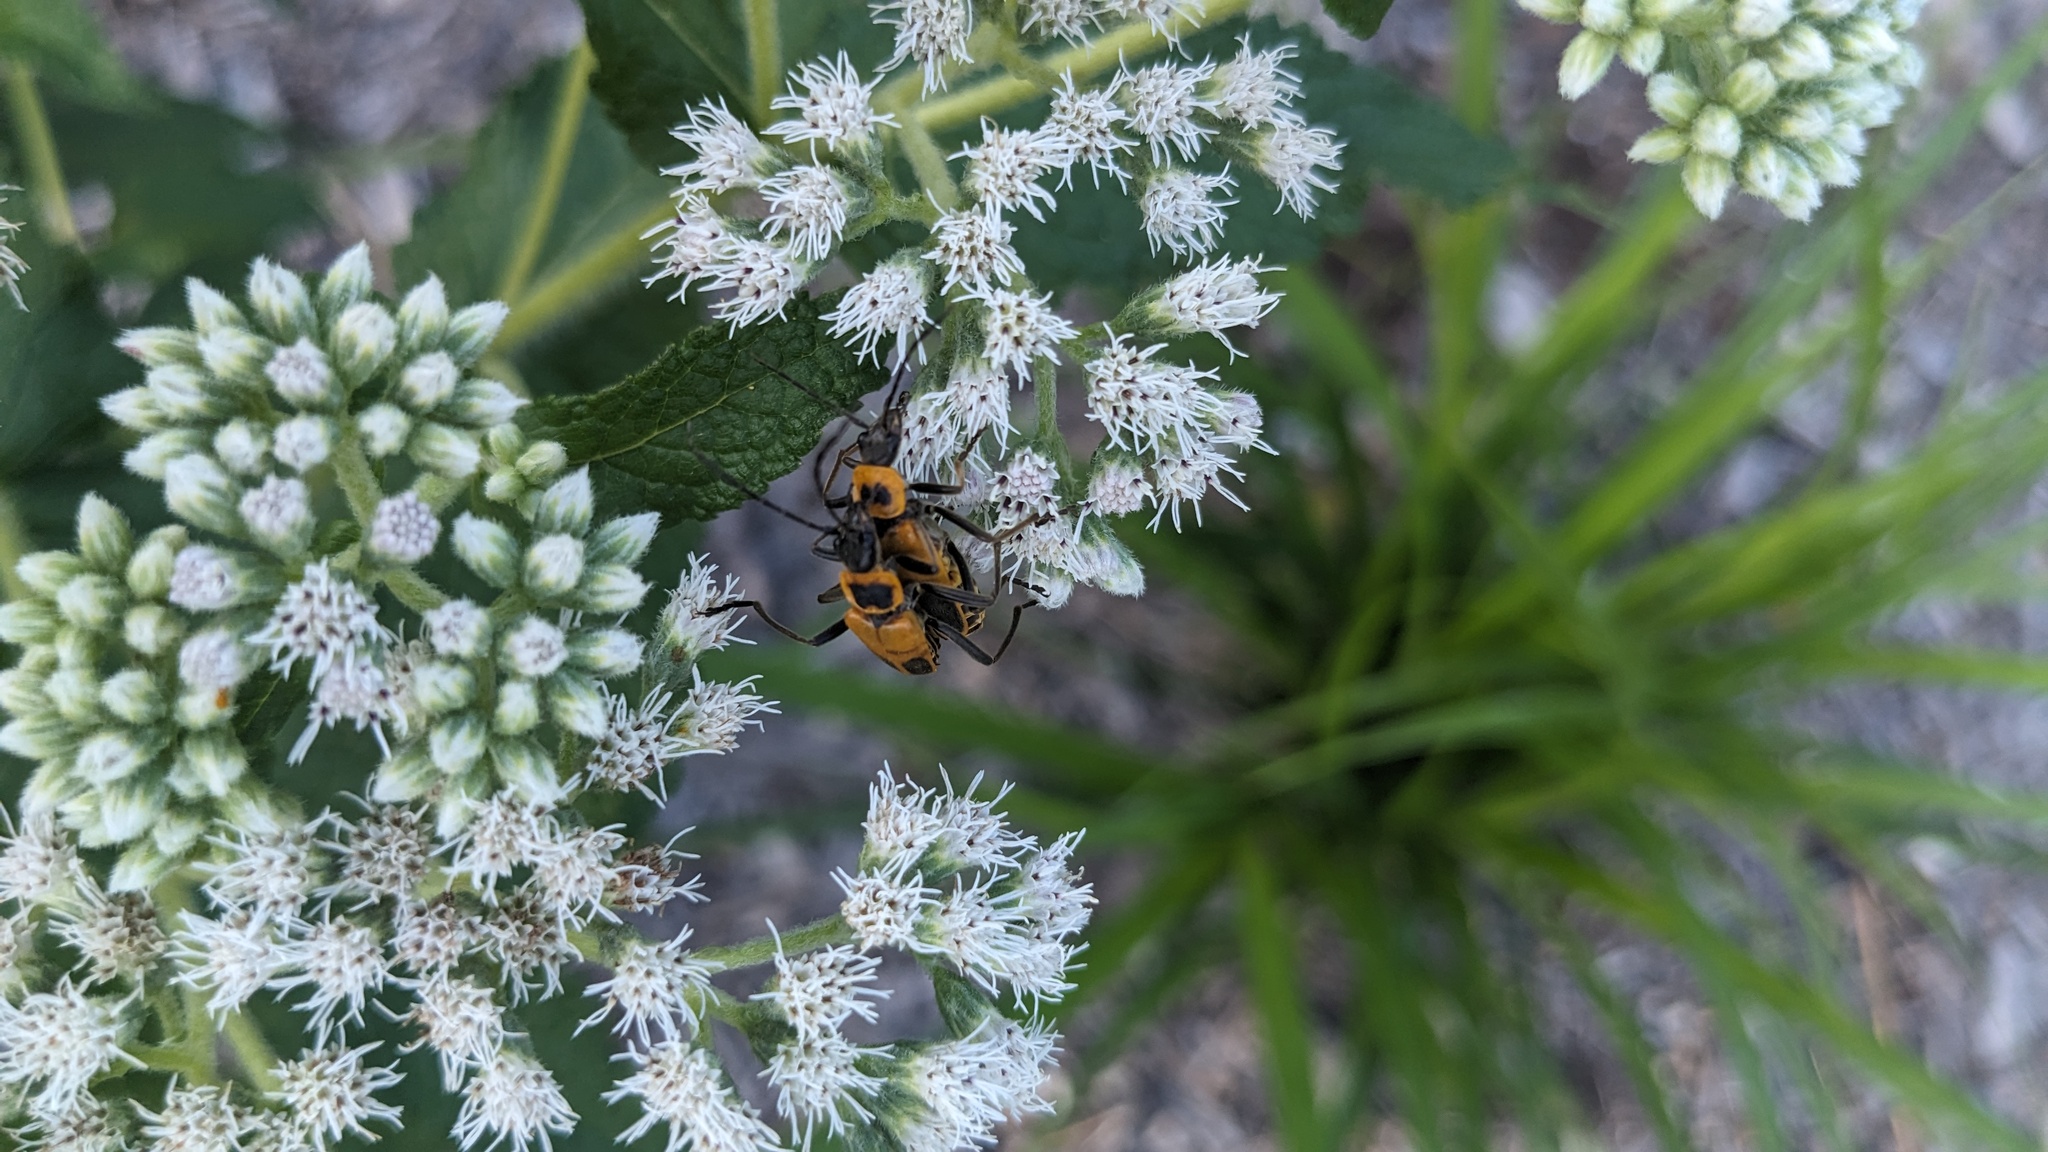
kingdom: Animalia
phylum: Arthropoda
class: Insecta
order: Coleoptera
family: Cantharidae
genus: Chauliognathus
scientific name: Chauliognathus pensylvanicus
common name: Goldenrod soldier beetle
